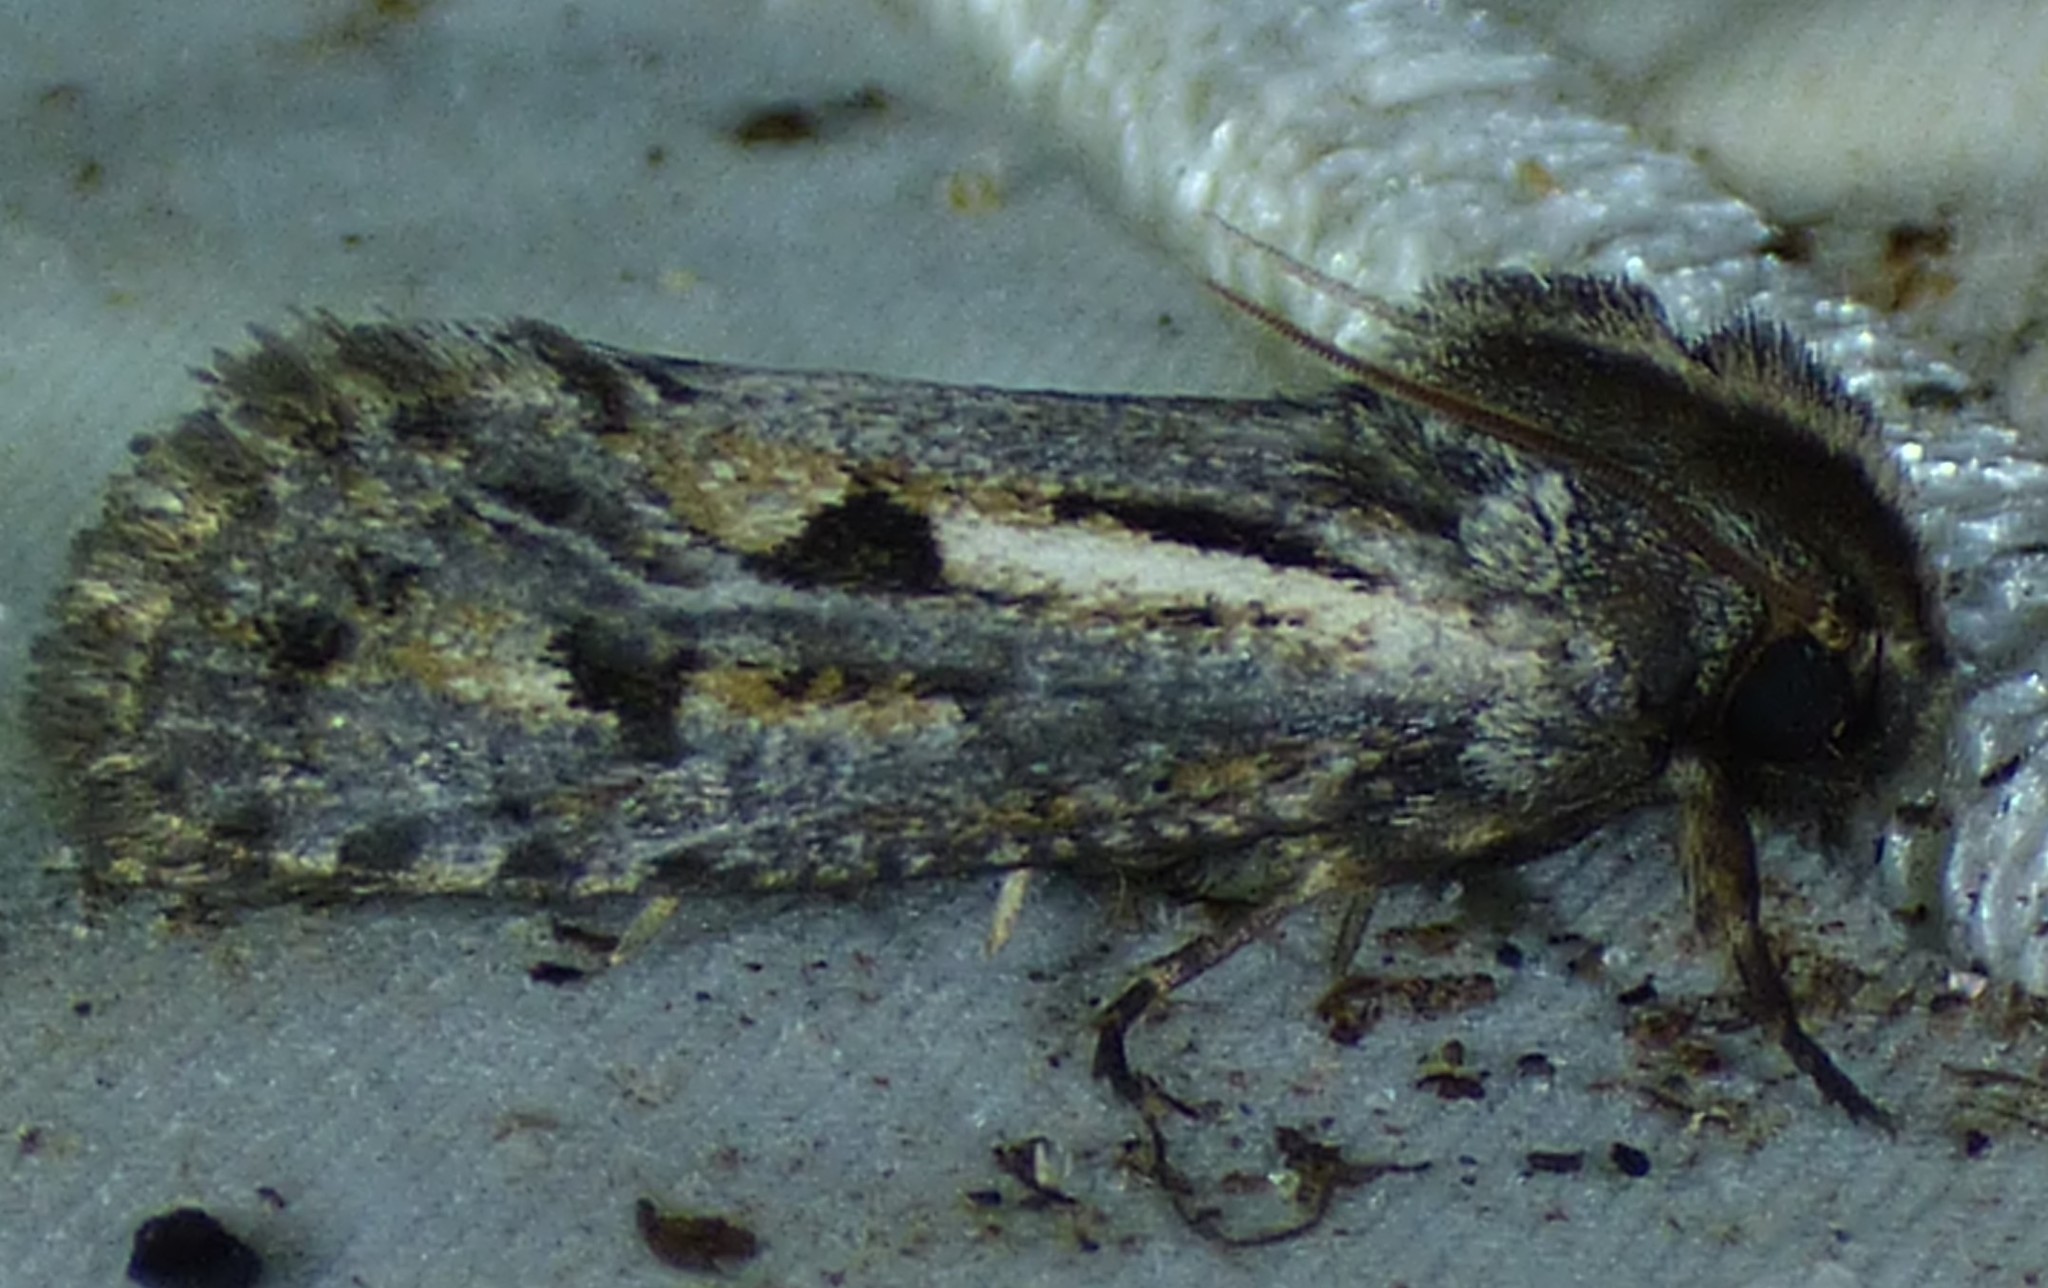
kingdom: Animalia
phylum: Arthropoda
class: Insecta
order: Lepidoptera
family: Tineidae
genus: Acrolophus
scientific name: Acrolophus popeanella
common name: Clemens' grass tubeworm moth
